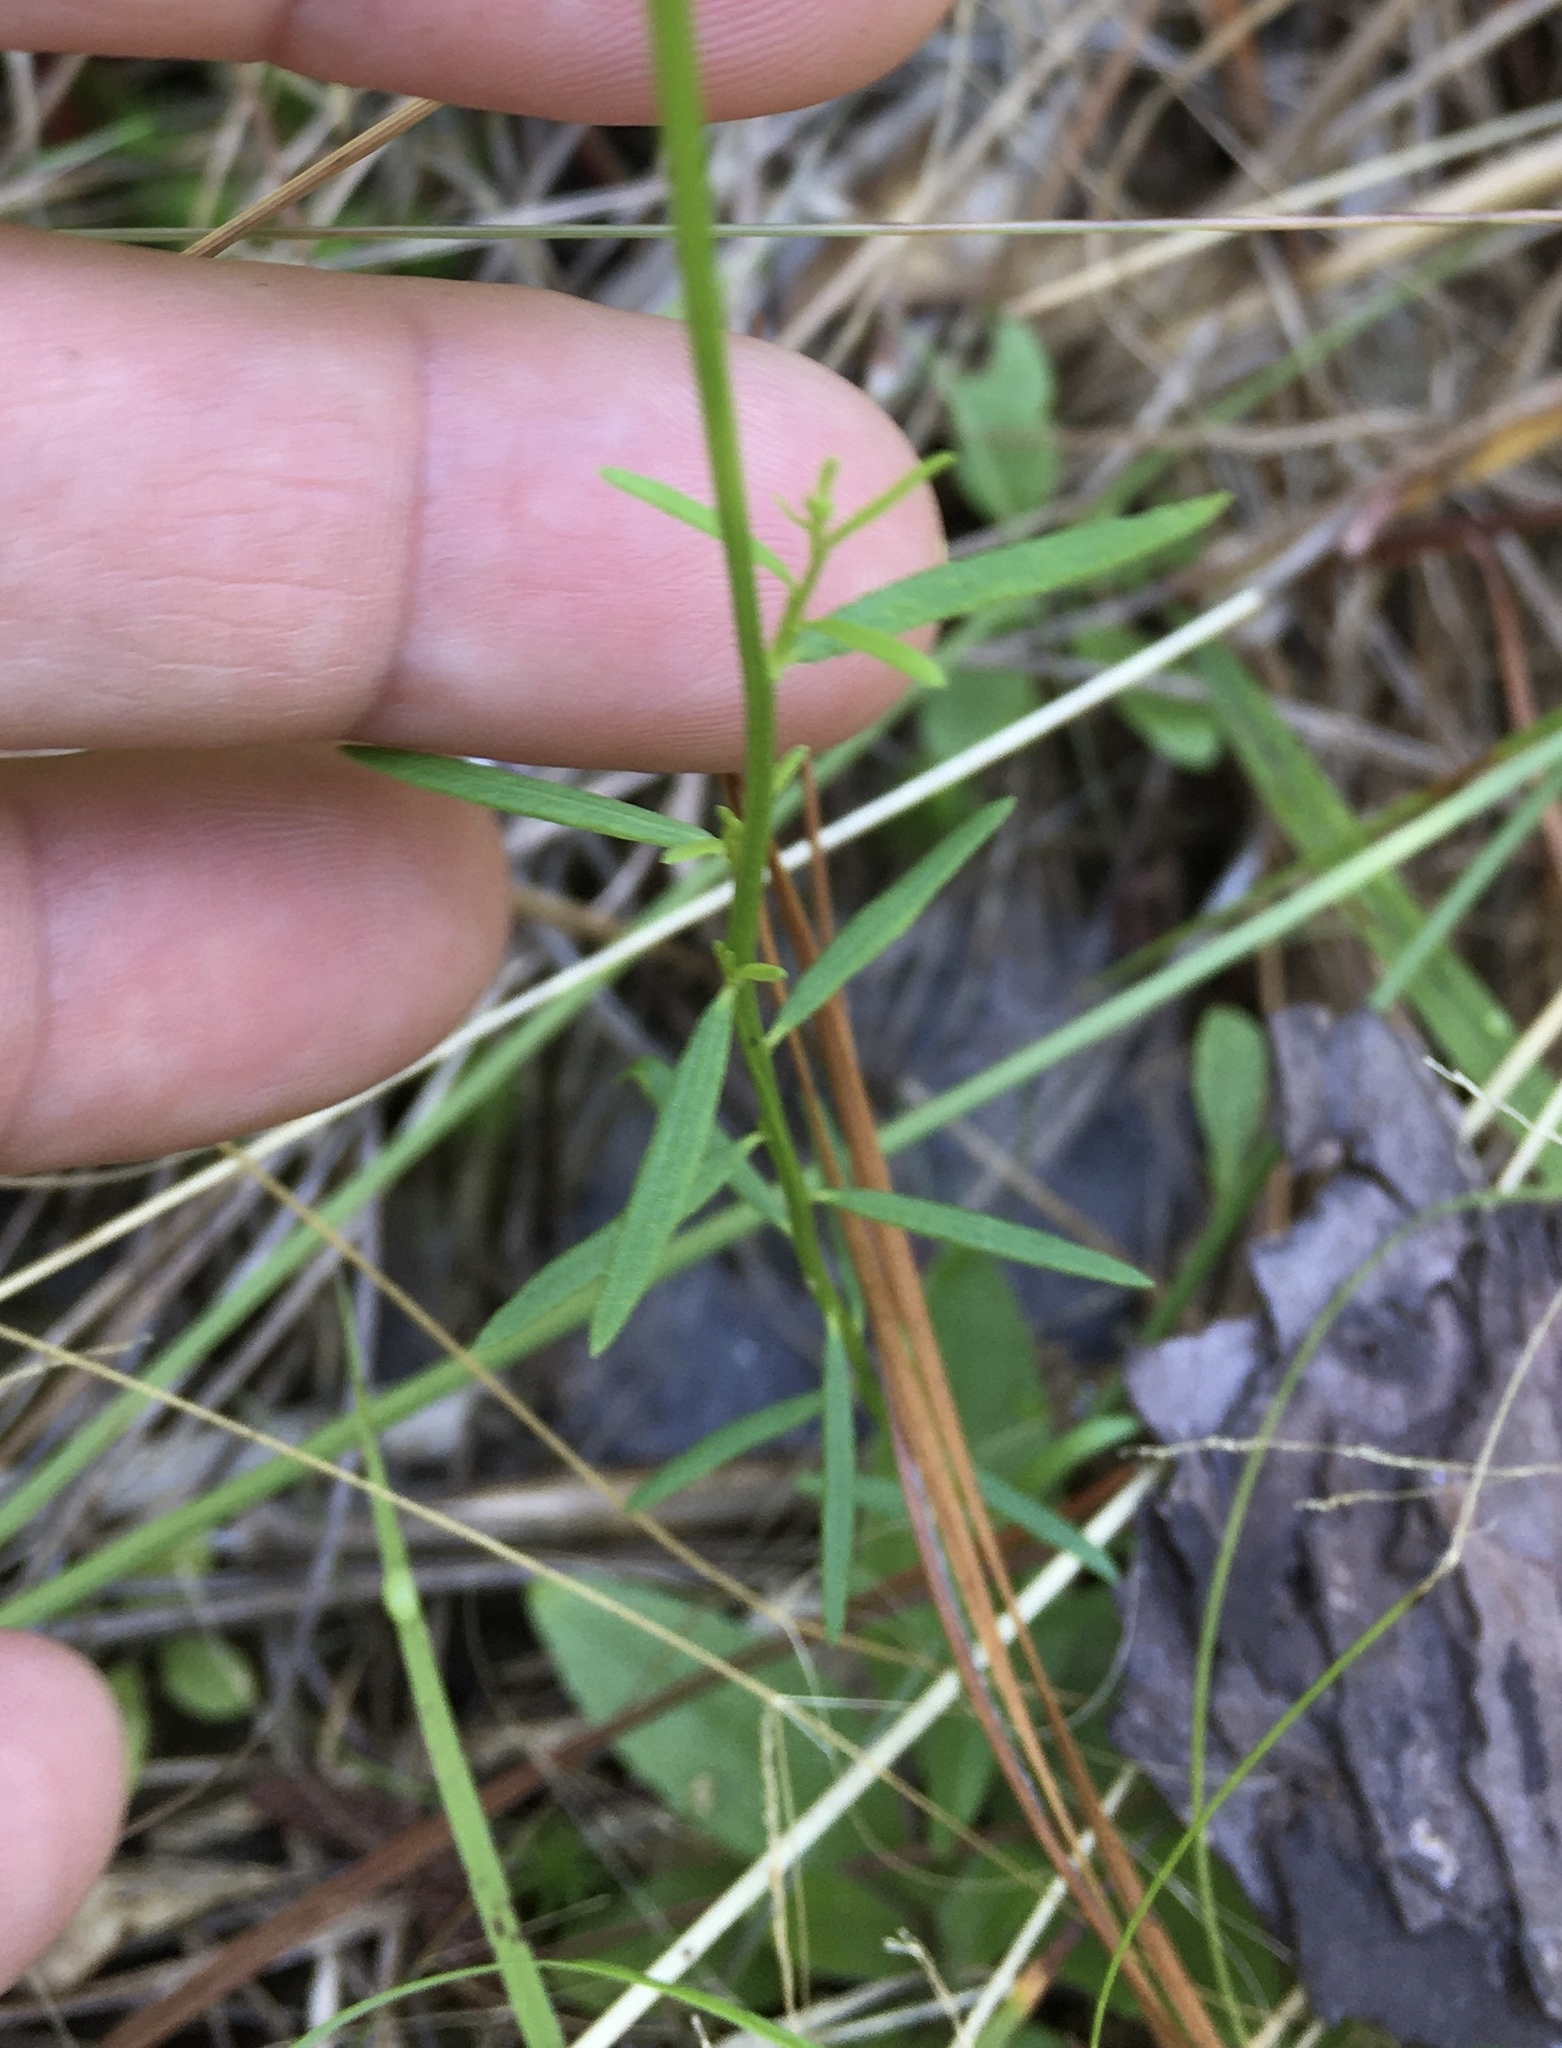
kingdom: Plantae
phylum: Tracheophyta
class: Magnoliopsida
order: Fabales
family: Polygalaceae
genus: Polygala
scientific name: Polygala curtissii
